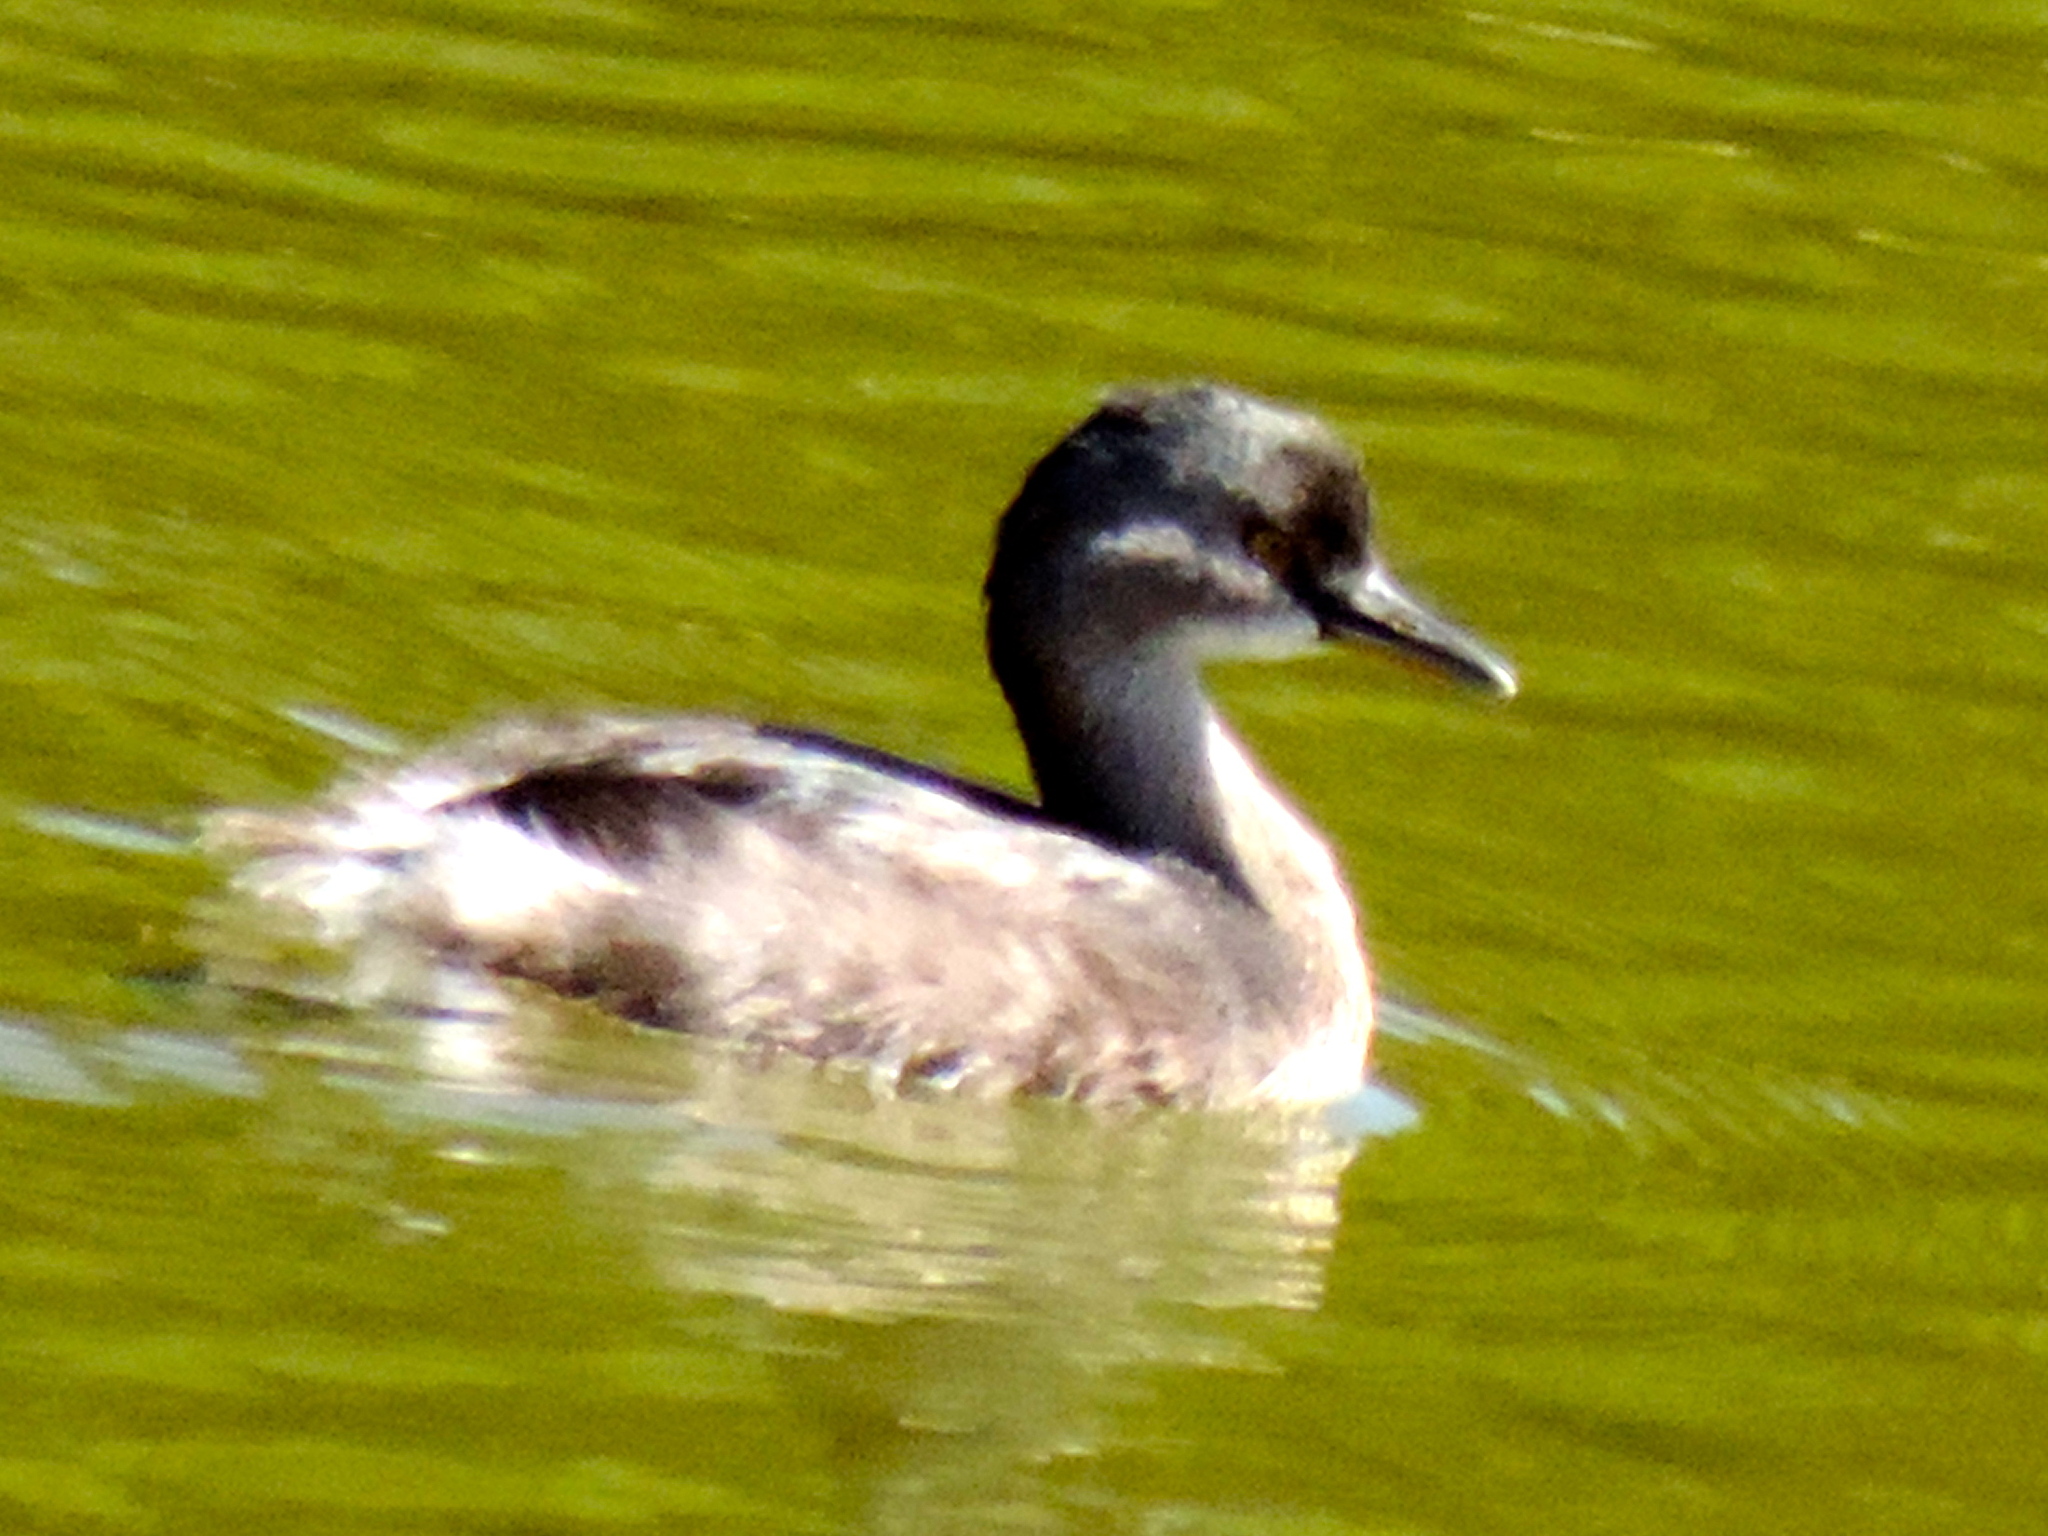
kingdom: Animalia
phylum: Chordata
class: Aves
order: Podicipediformes
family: Podicipedidae
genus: Tachybaptus
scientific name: Tachybaptus dominicus
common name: Least grebe
